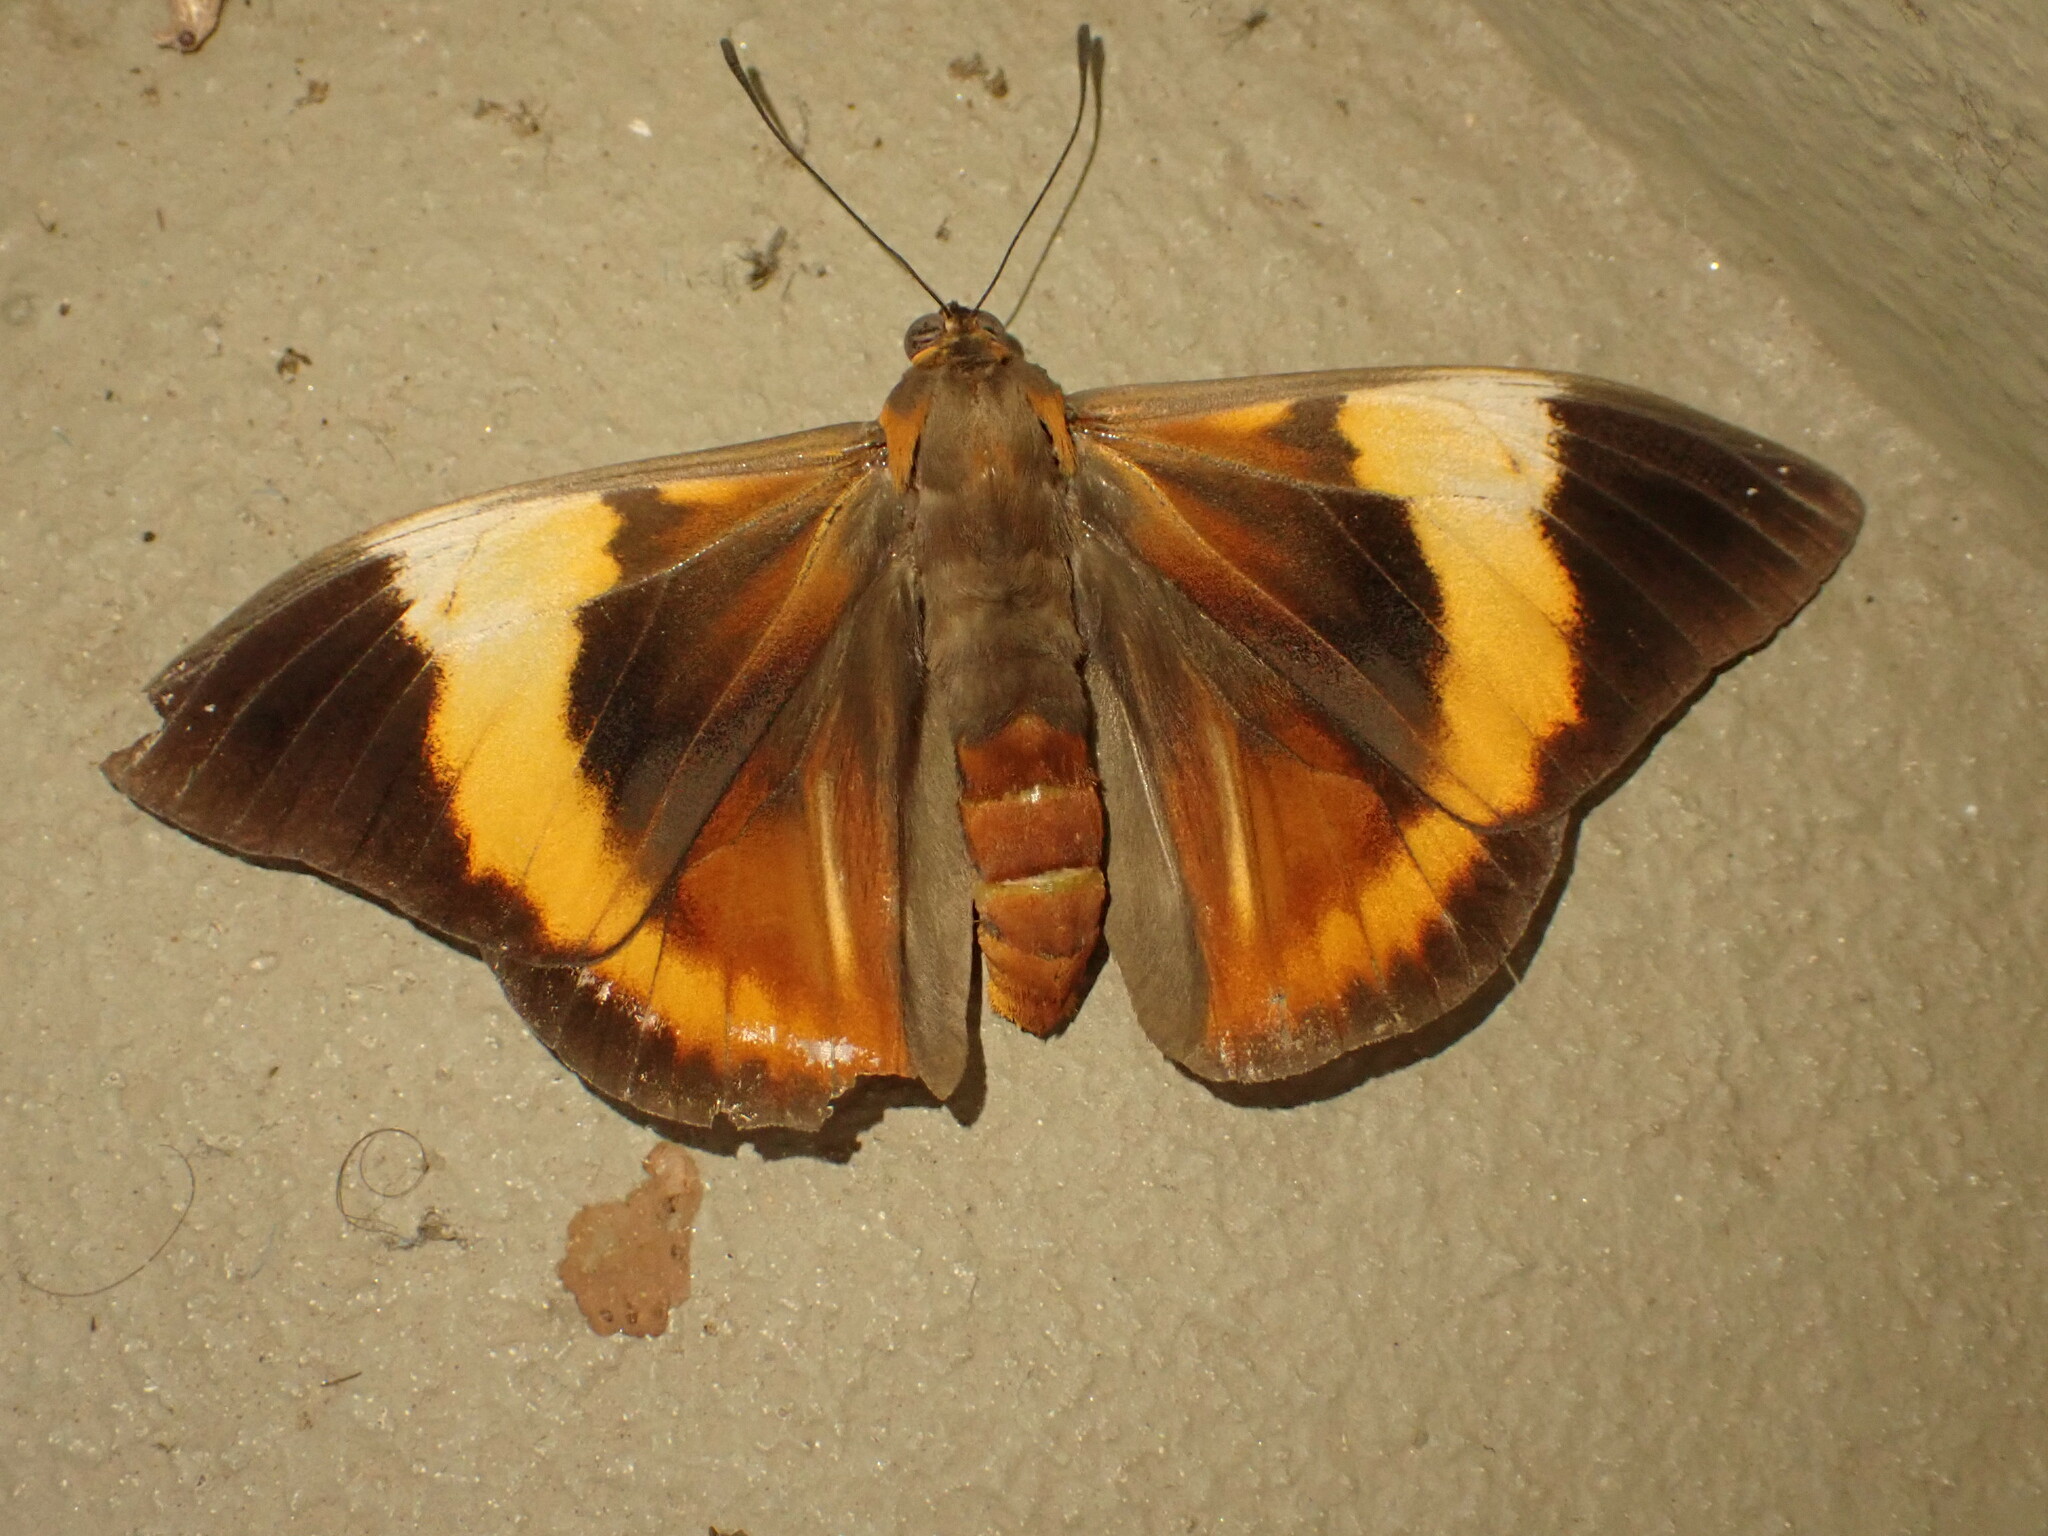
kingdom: Animalia
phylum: Arthropoda
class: Insecta
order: Lepidoptera
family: Nymphalidae
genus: Brassolis
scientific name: Brassolis sophorae
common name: Coconut caterpillar
